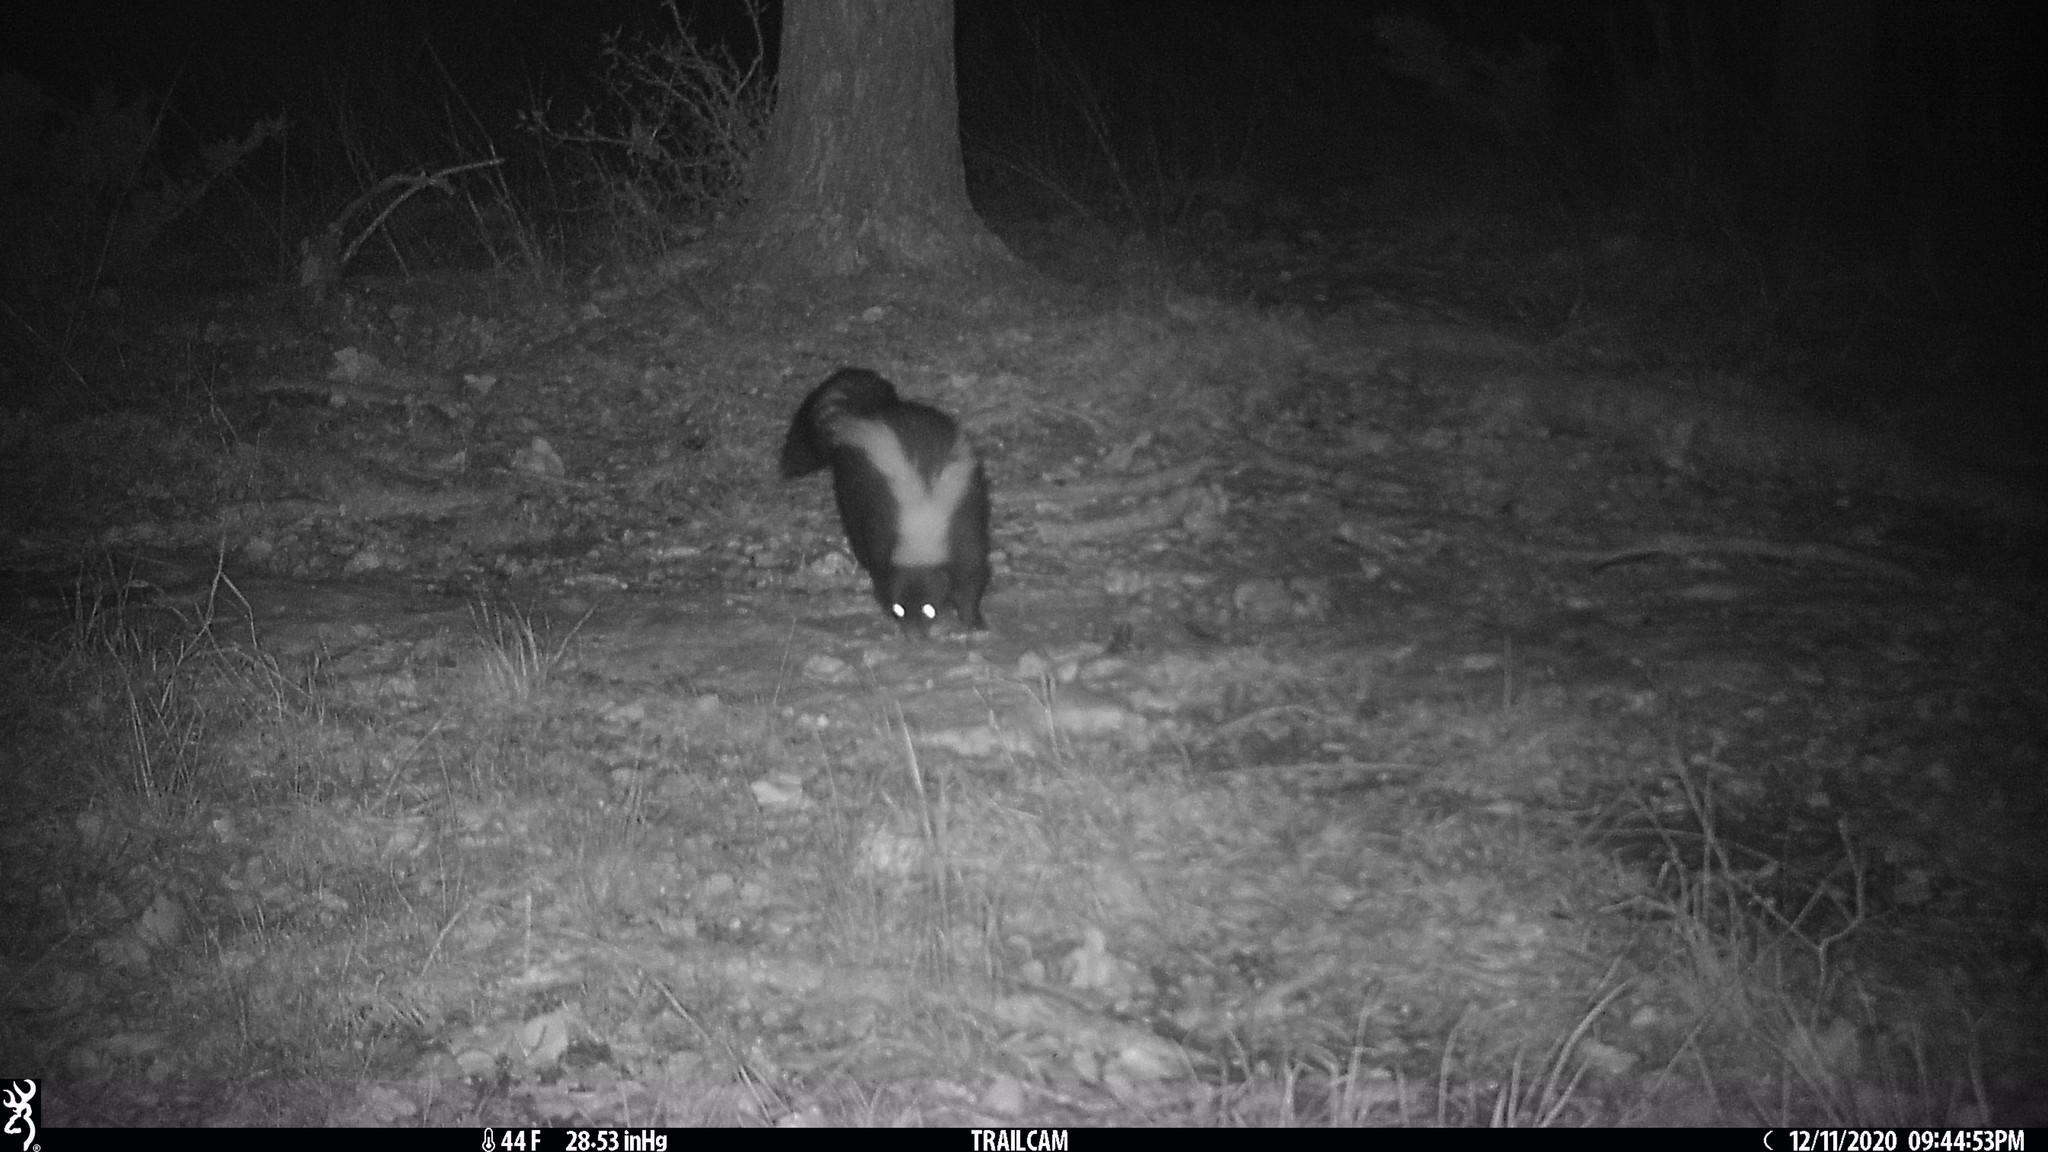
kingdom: Animalia
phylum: Chordata
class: Mammalia
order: Carnivora
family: Mephitidae
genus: Mephitis
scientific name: Mephitis mephitis
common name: Striped skunk
